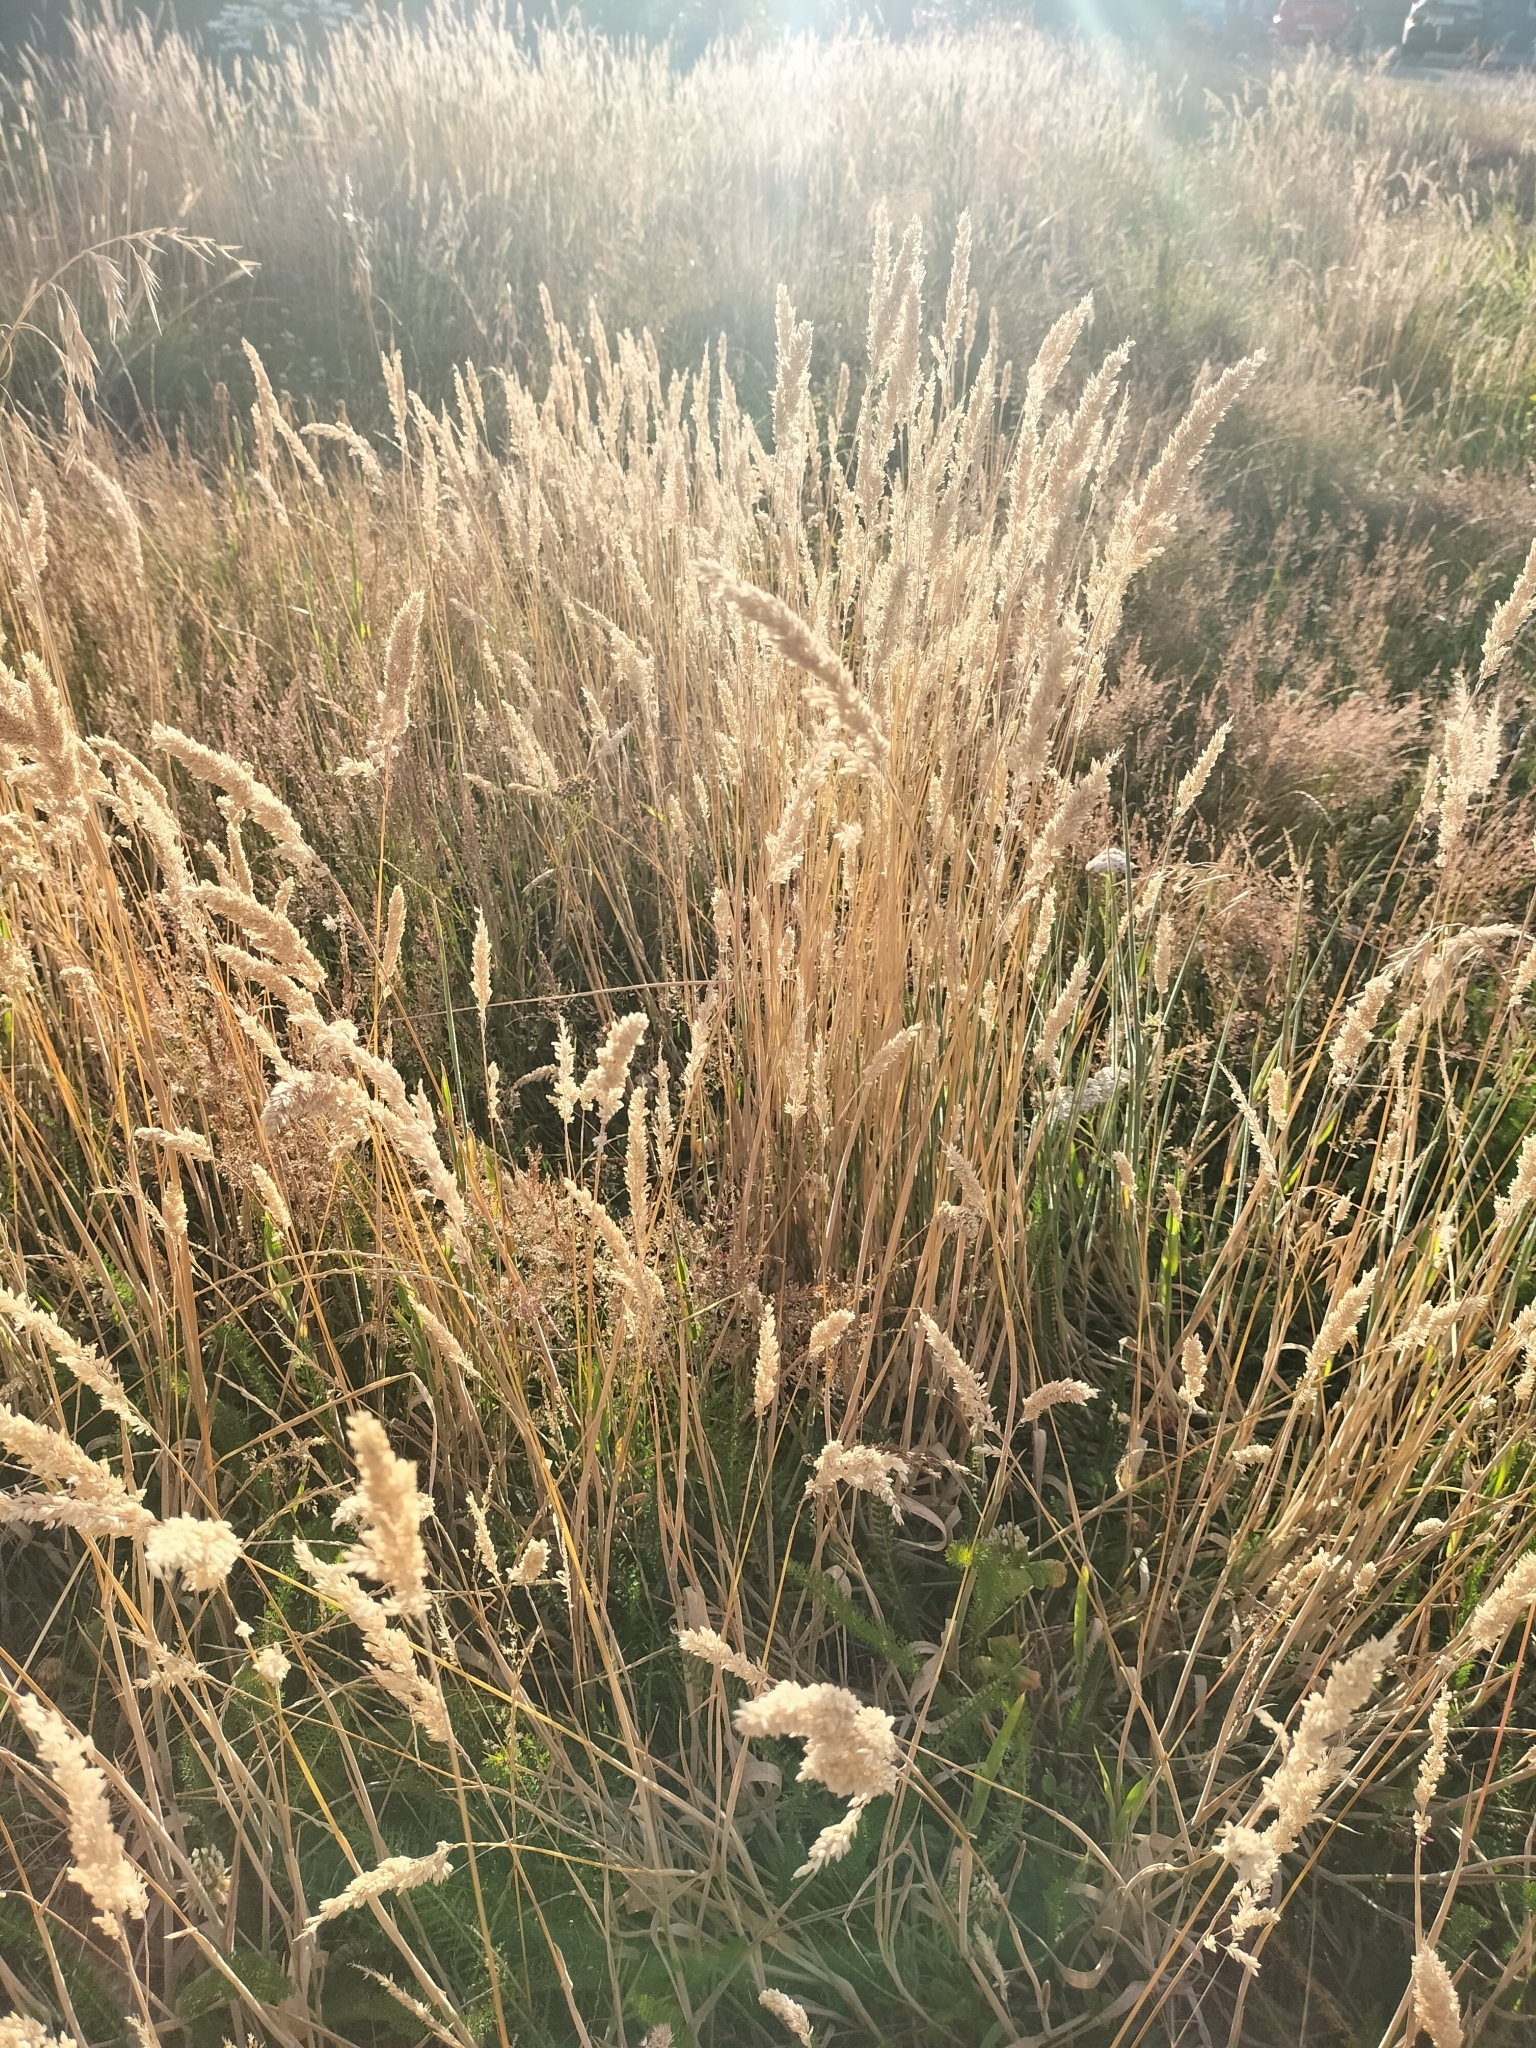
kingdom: Plantae
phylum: Tracheophyta
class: Liliopsida
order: Poales
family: Poaceae
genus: Holcus
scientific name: Holcus lanatus
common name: Yorkshire-fog
